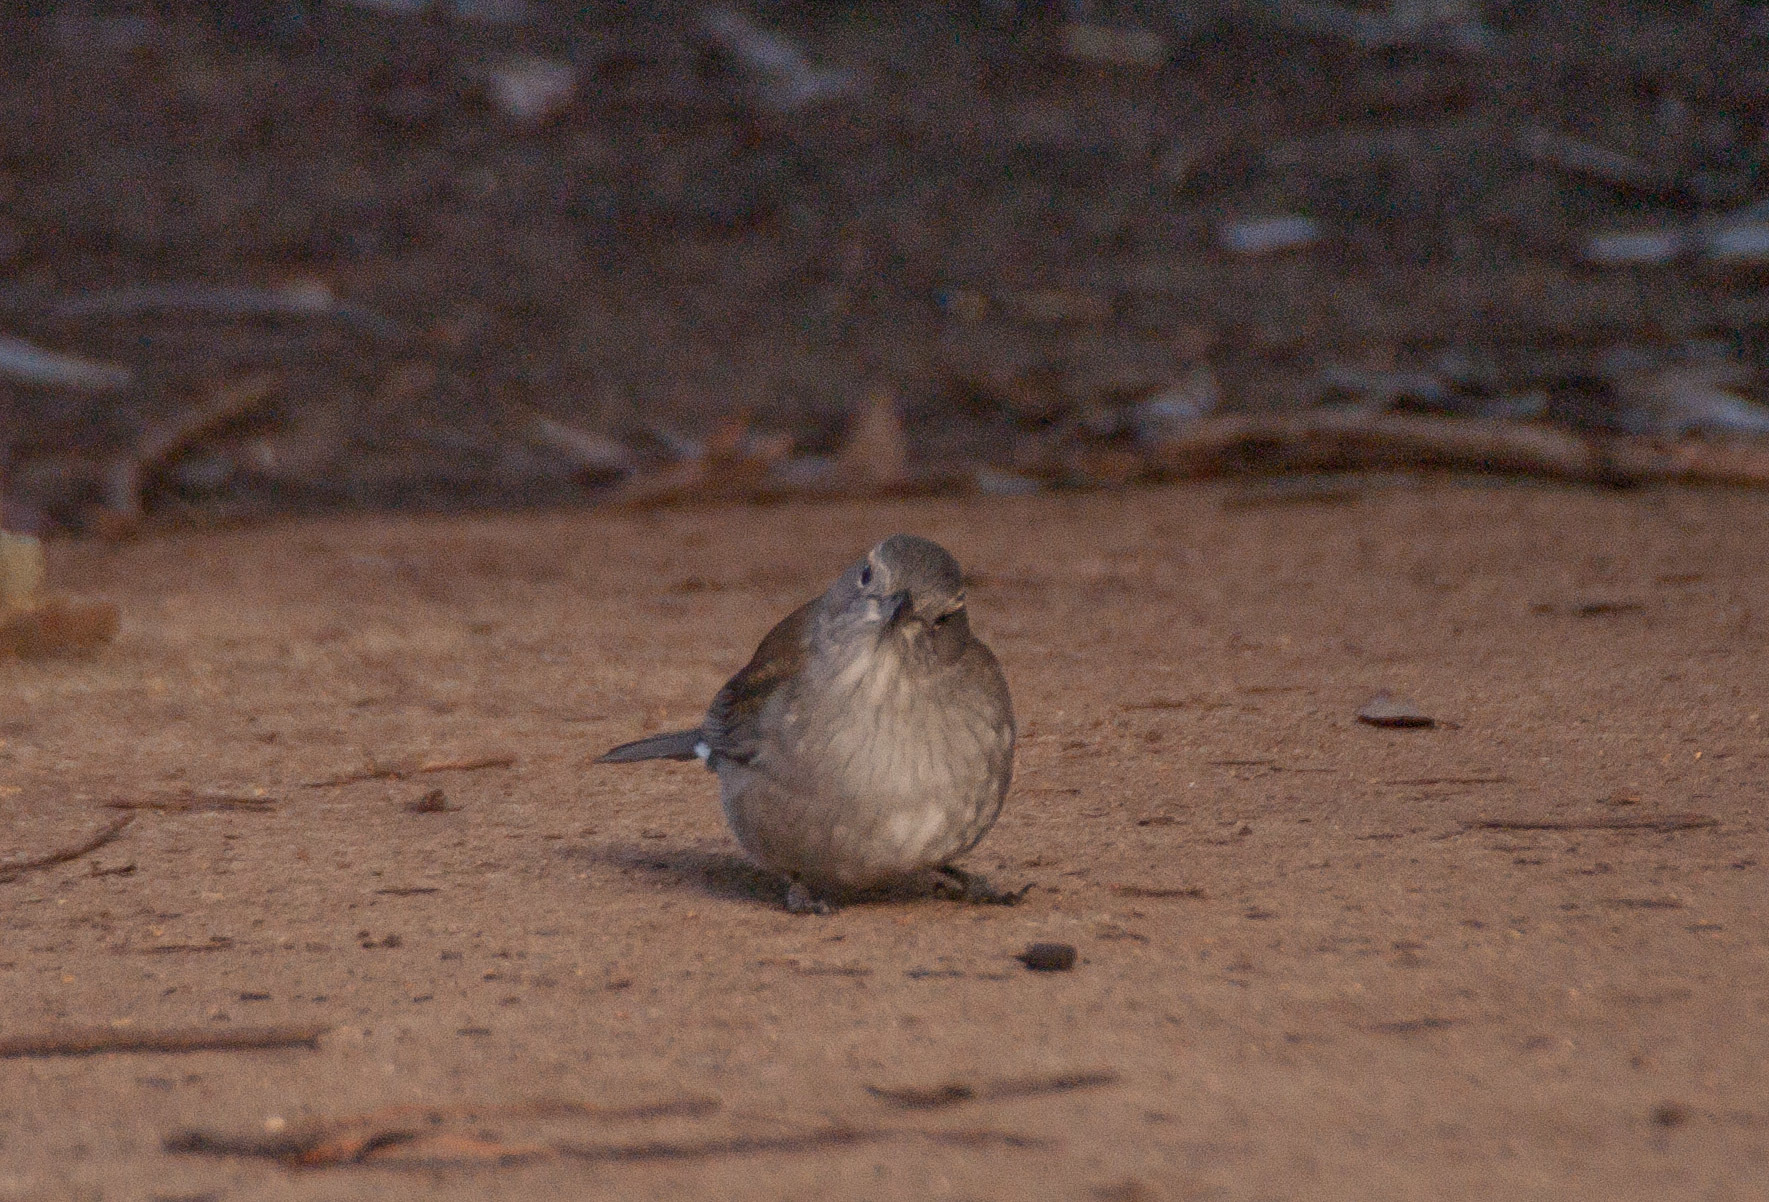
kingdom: Animalia
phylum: Chordata
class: Aves
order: Passeriformes
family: Pachycephalidae
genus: Colluricincla
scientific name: Colluricincla harmonica
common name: Grey shrikethrush
